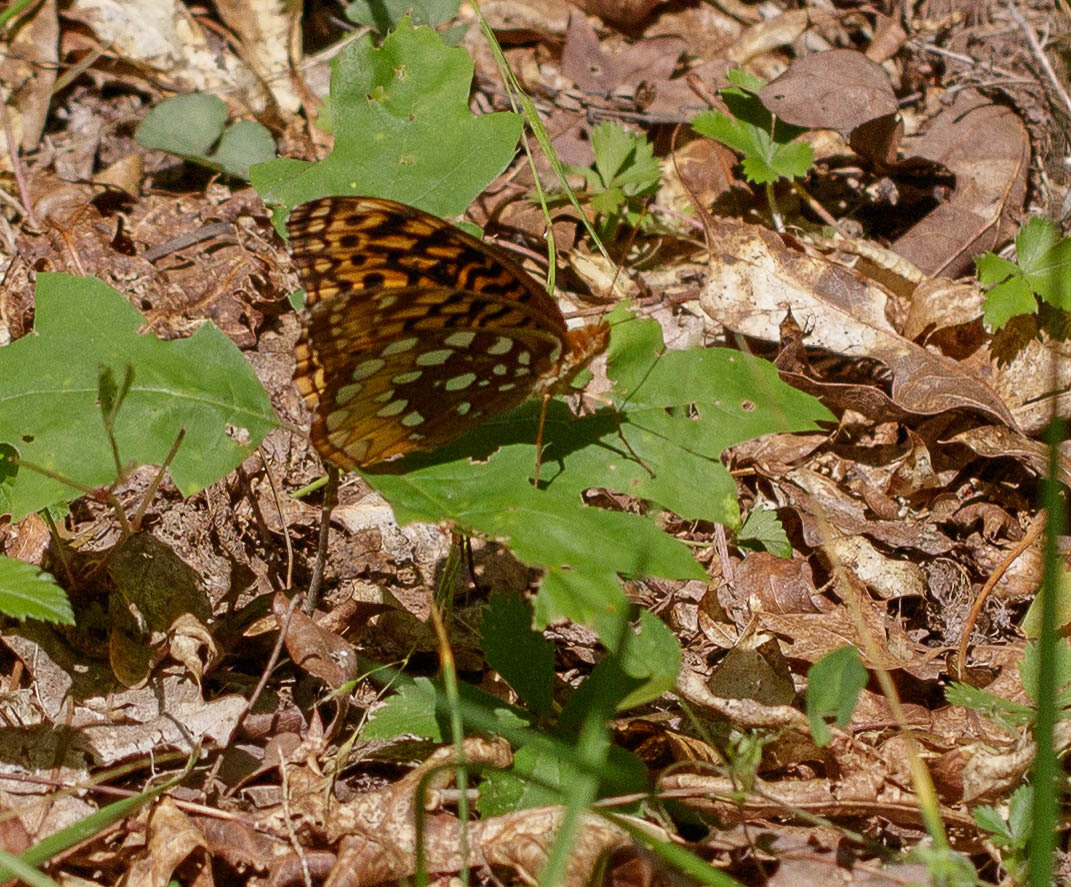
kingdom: Animalia
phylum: Arthropoda
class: Insecta
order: Lepidoptera
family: Nymphalidae
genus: Speyeria
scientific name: Speyeria cybele
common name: Great spangled fritillary
